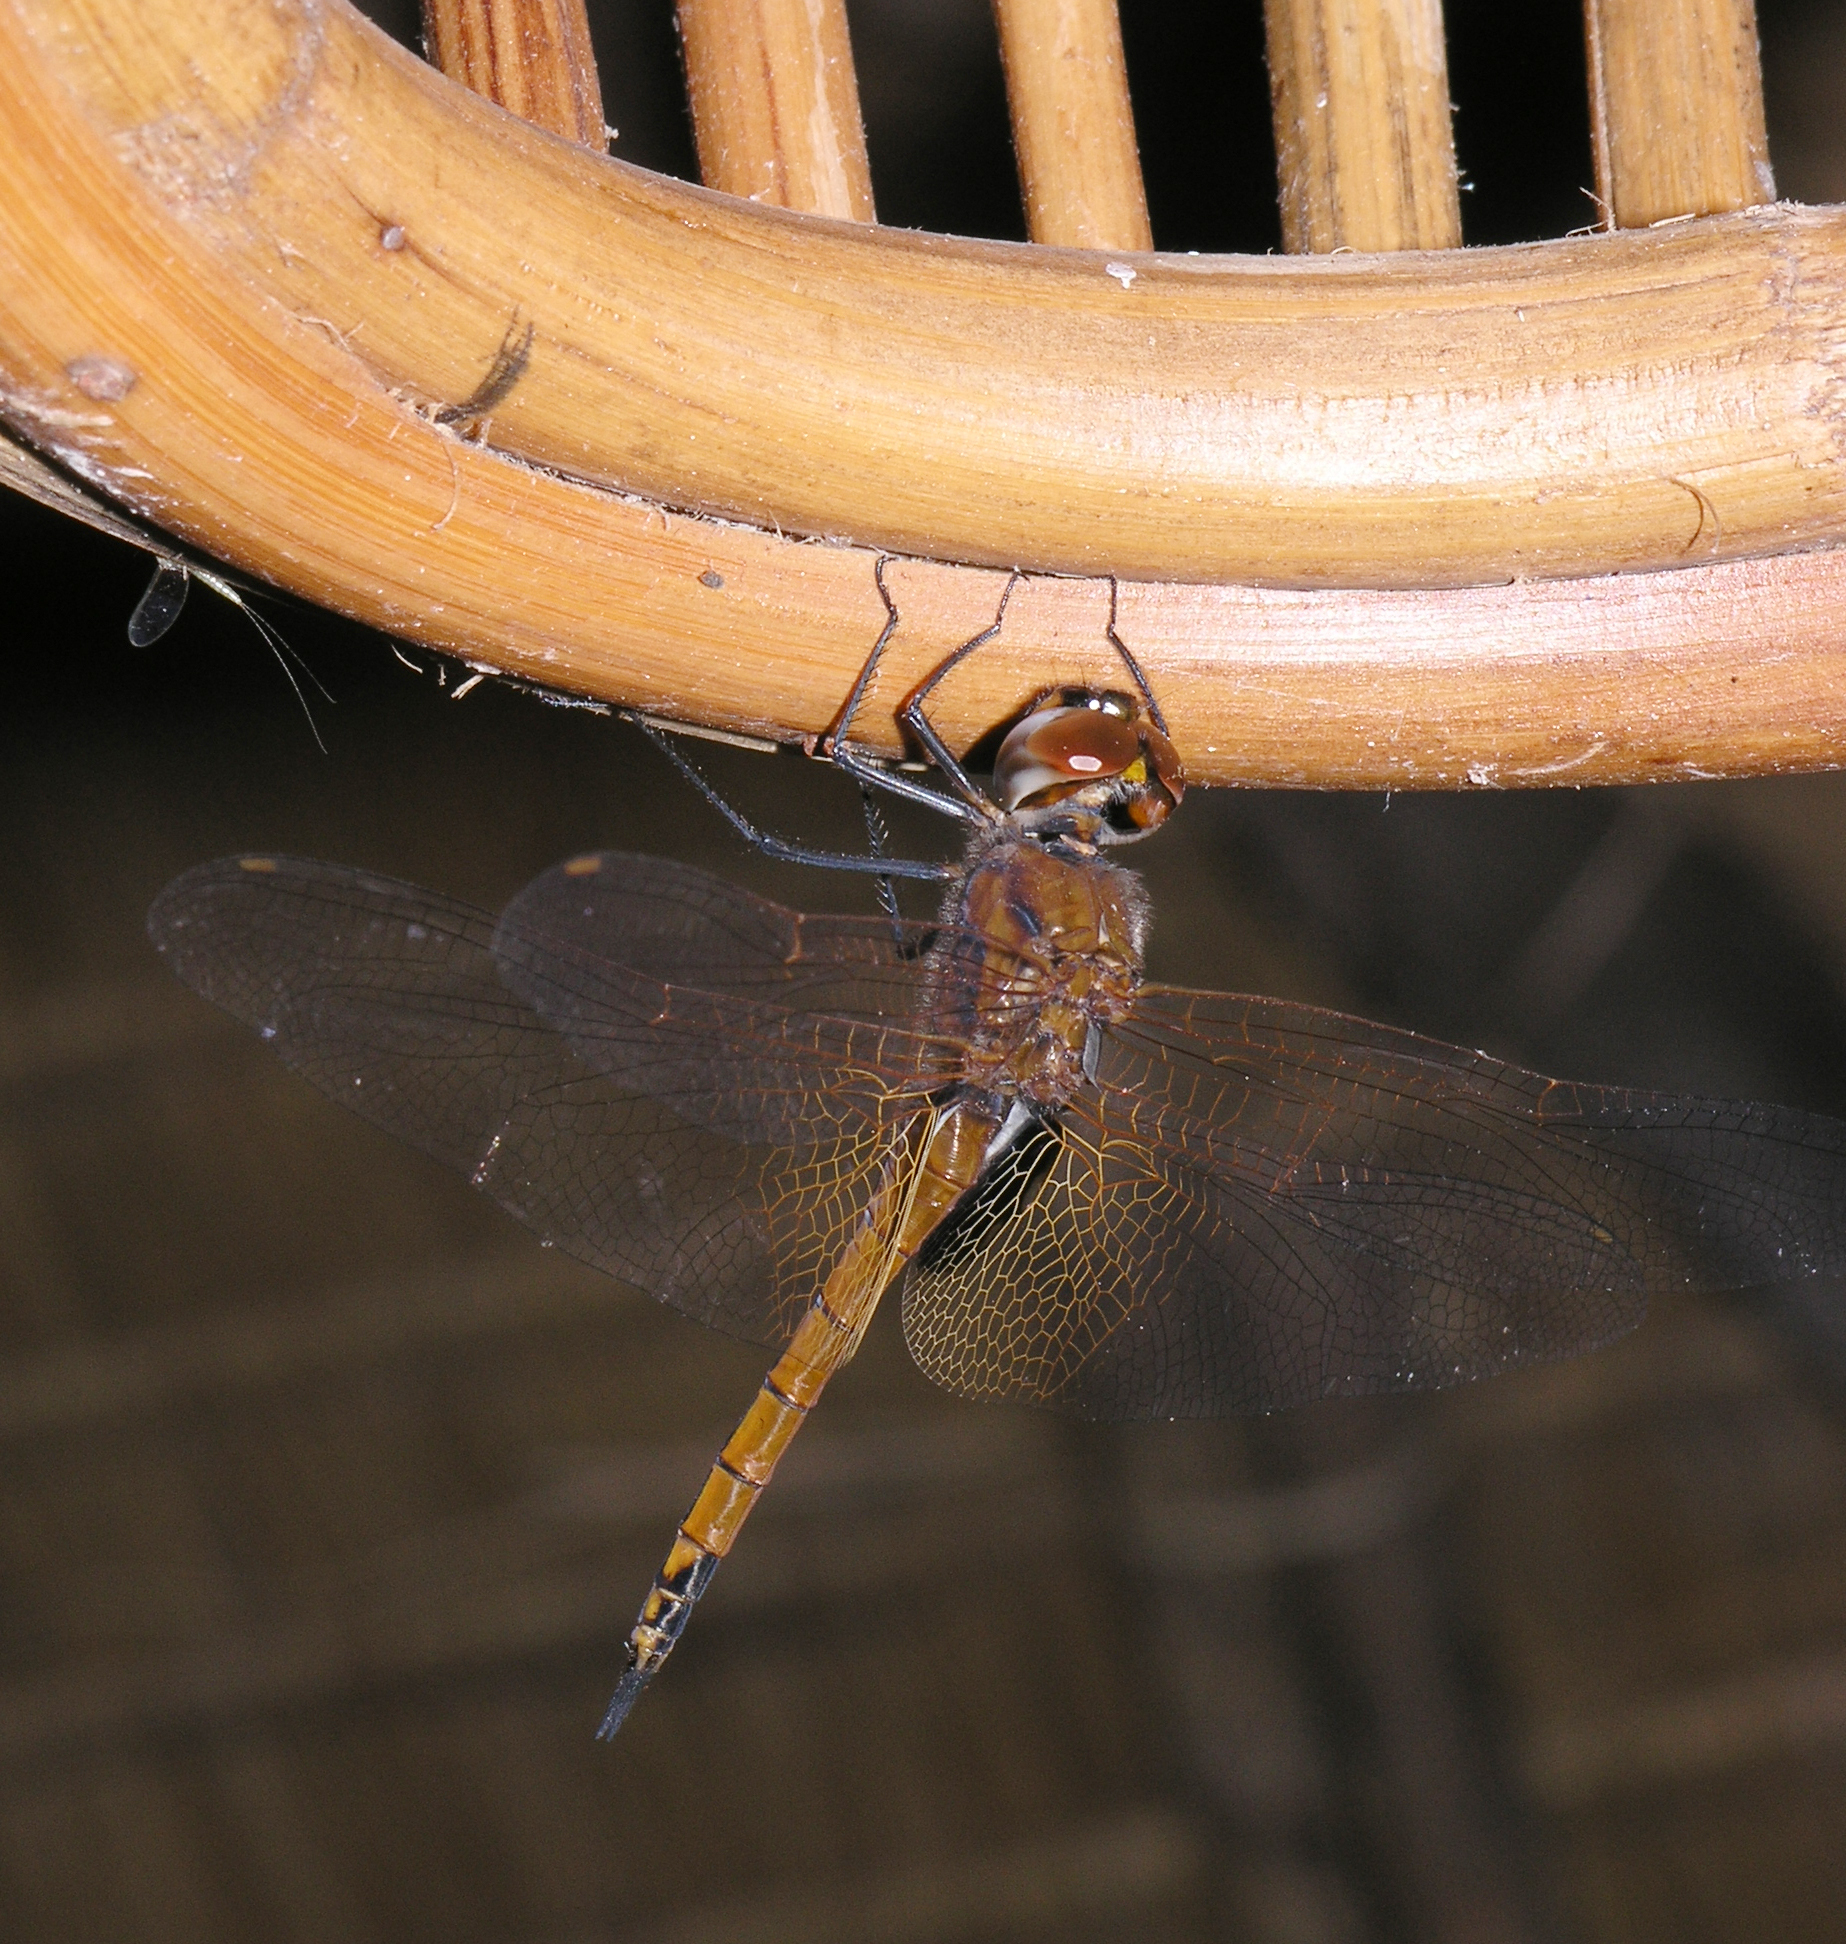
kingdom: Animalia
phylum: Arthropoda
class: Insecta
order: Odonata
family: Libellulidae
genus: Tramea
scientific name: Tramea transmarina
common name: Red glider dragonfly
